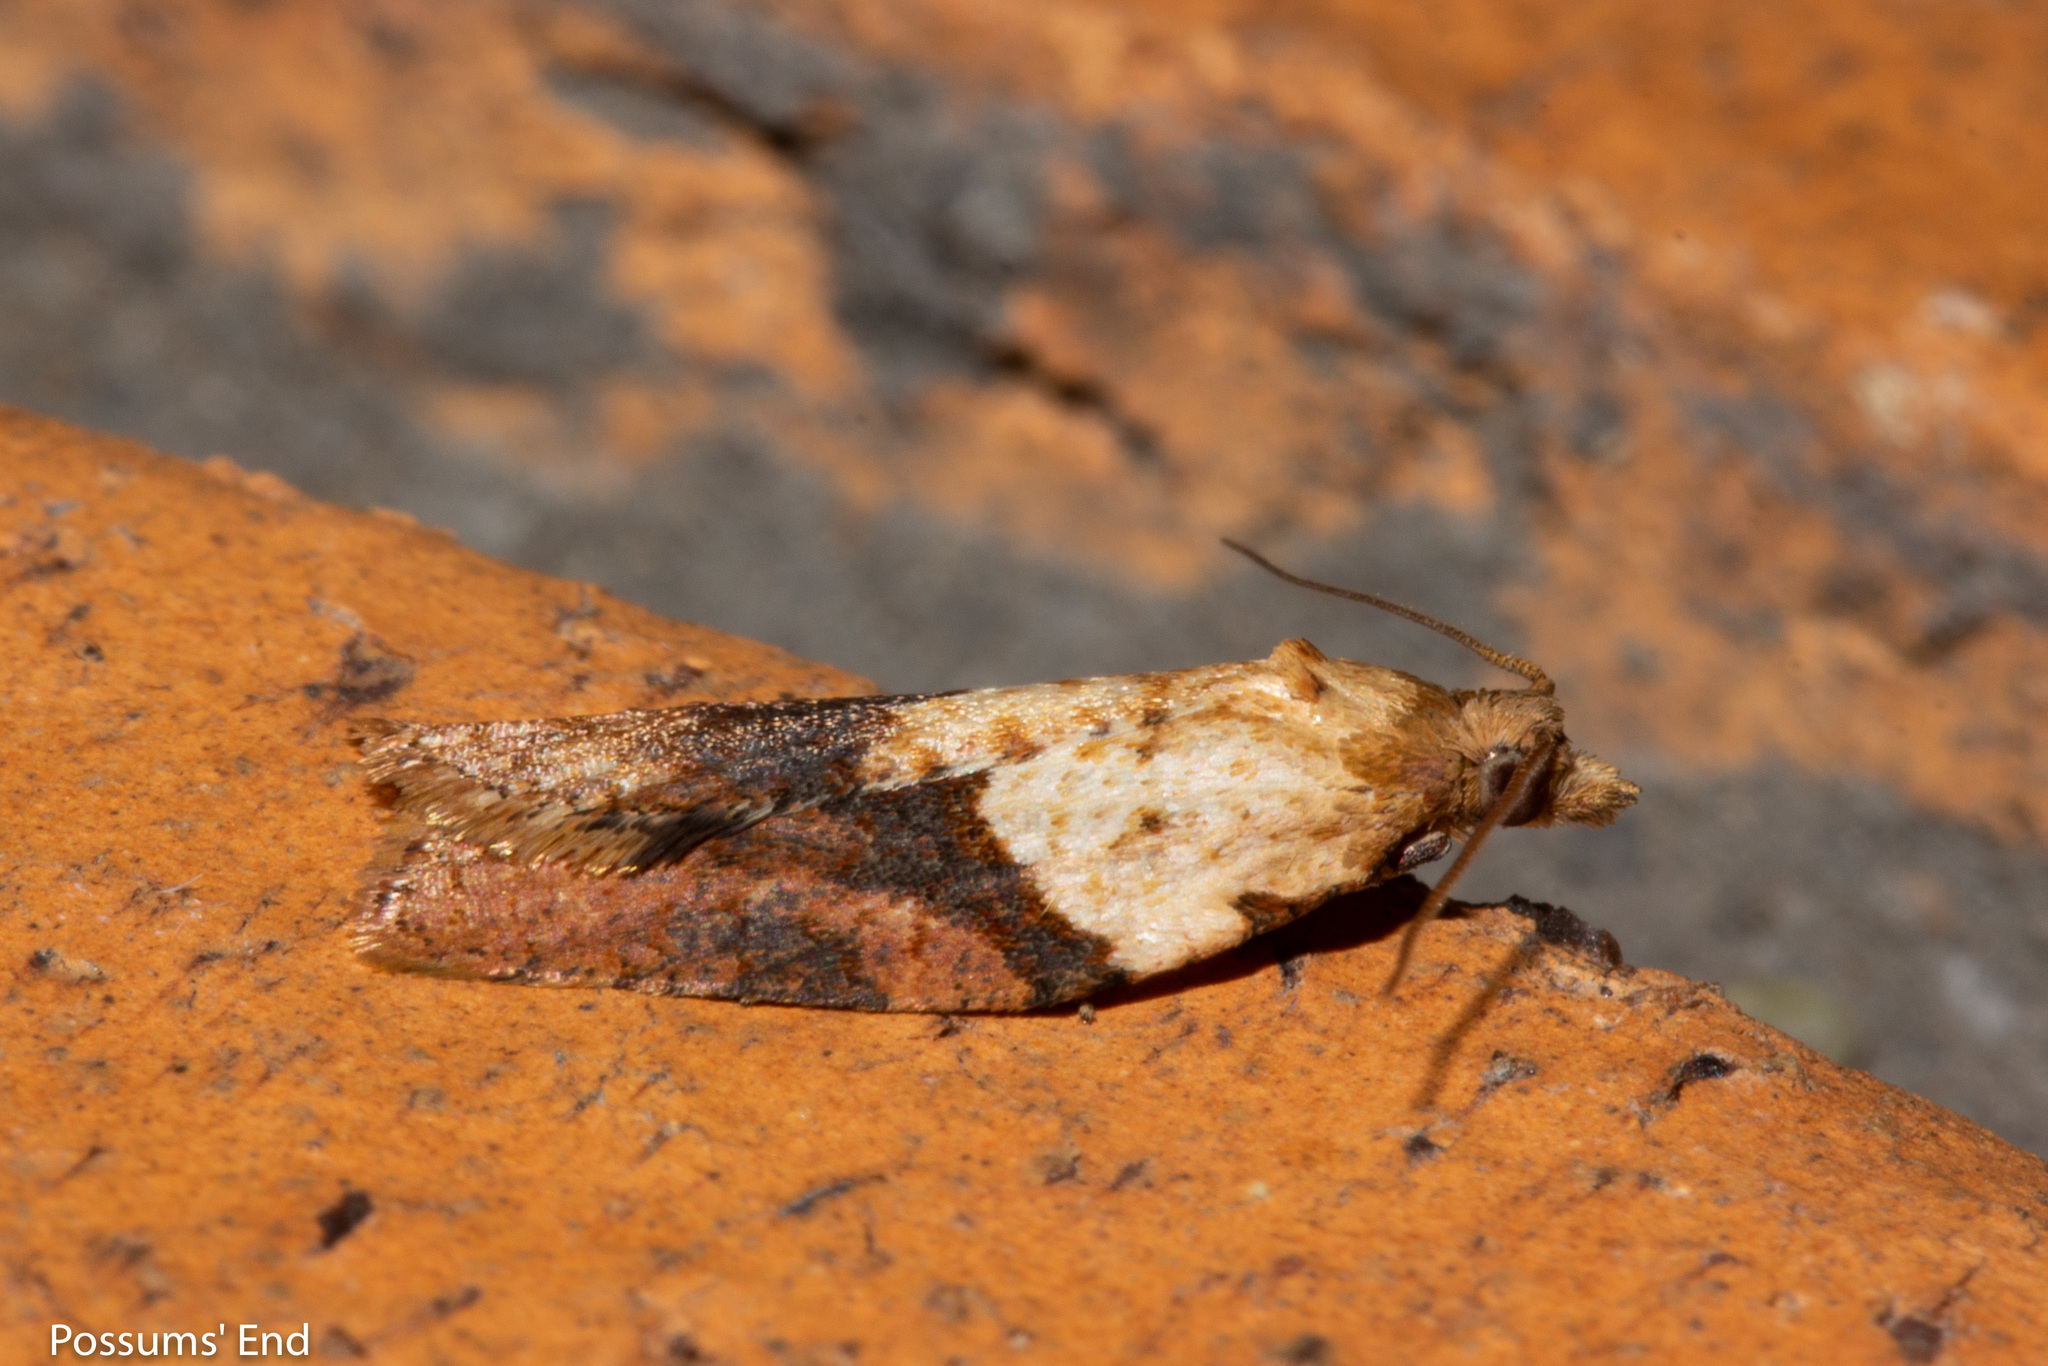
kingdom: Animalia
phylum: Arthropoda
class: Insecta
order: Lepidoptera
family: Tortricidae
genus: Epiphyas
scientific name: Epiphyas postvittana
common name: Light brown apple moth
